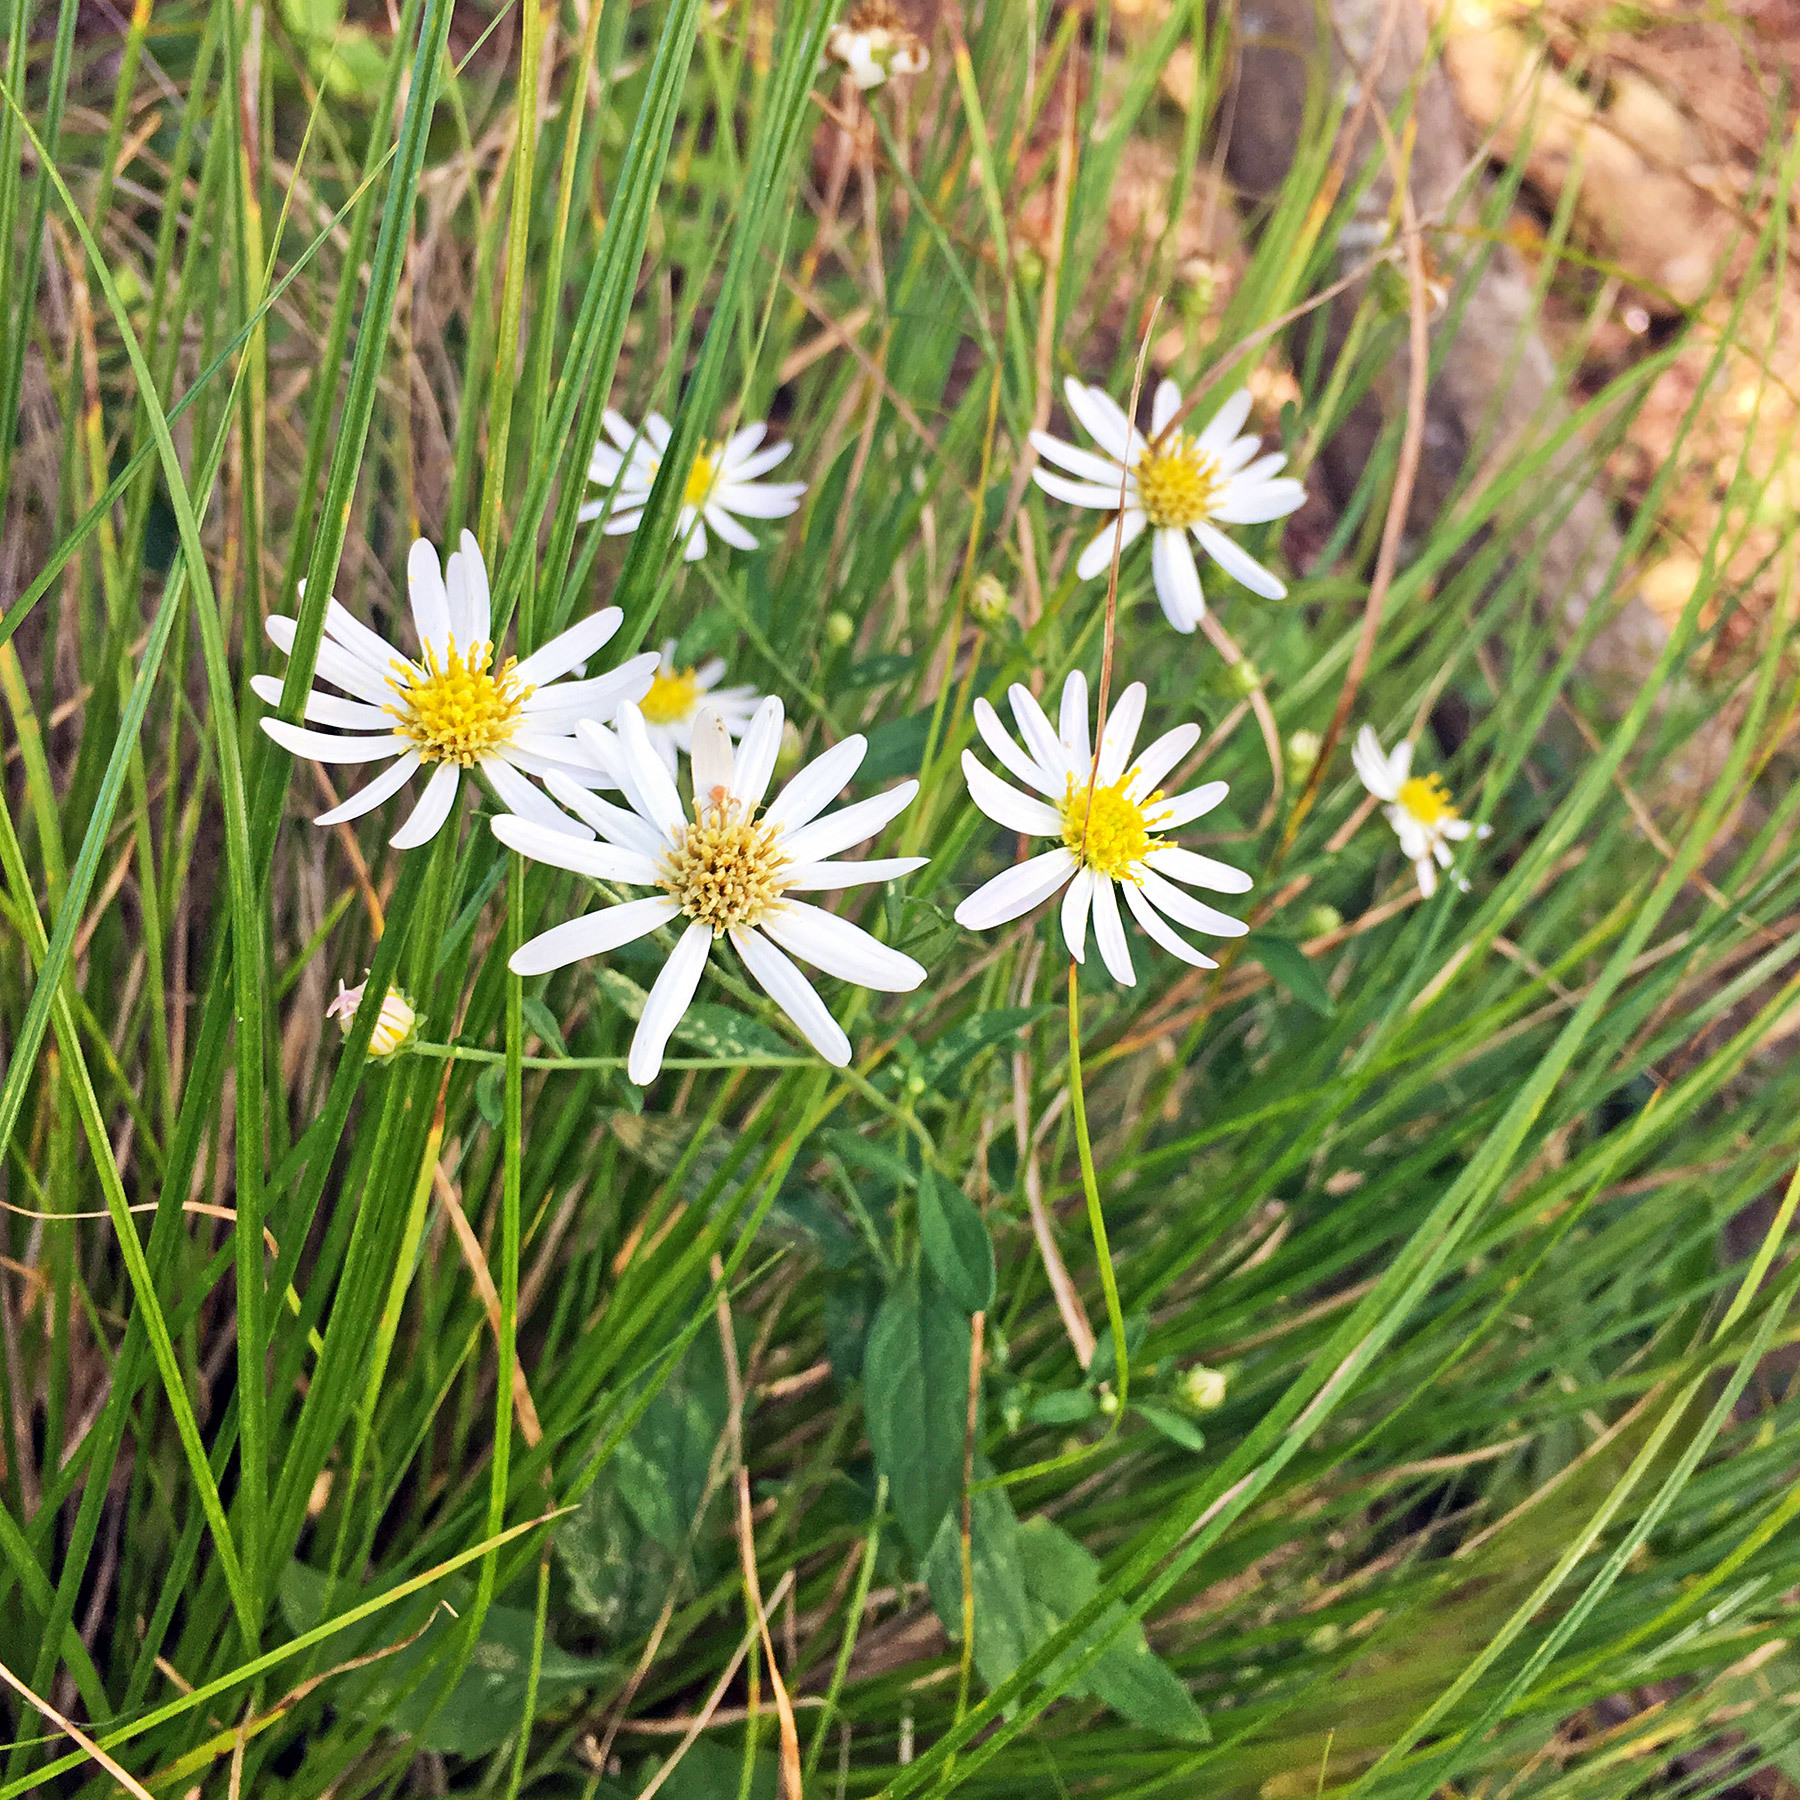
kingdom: Plantae
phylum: Tracheophyta
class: Magnoliopsida
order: Asterales
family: Asteraceae
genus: Aster
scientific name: Aster microcephalus
